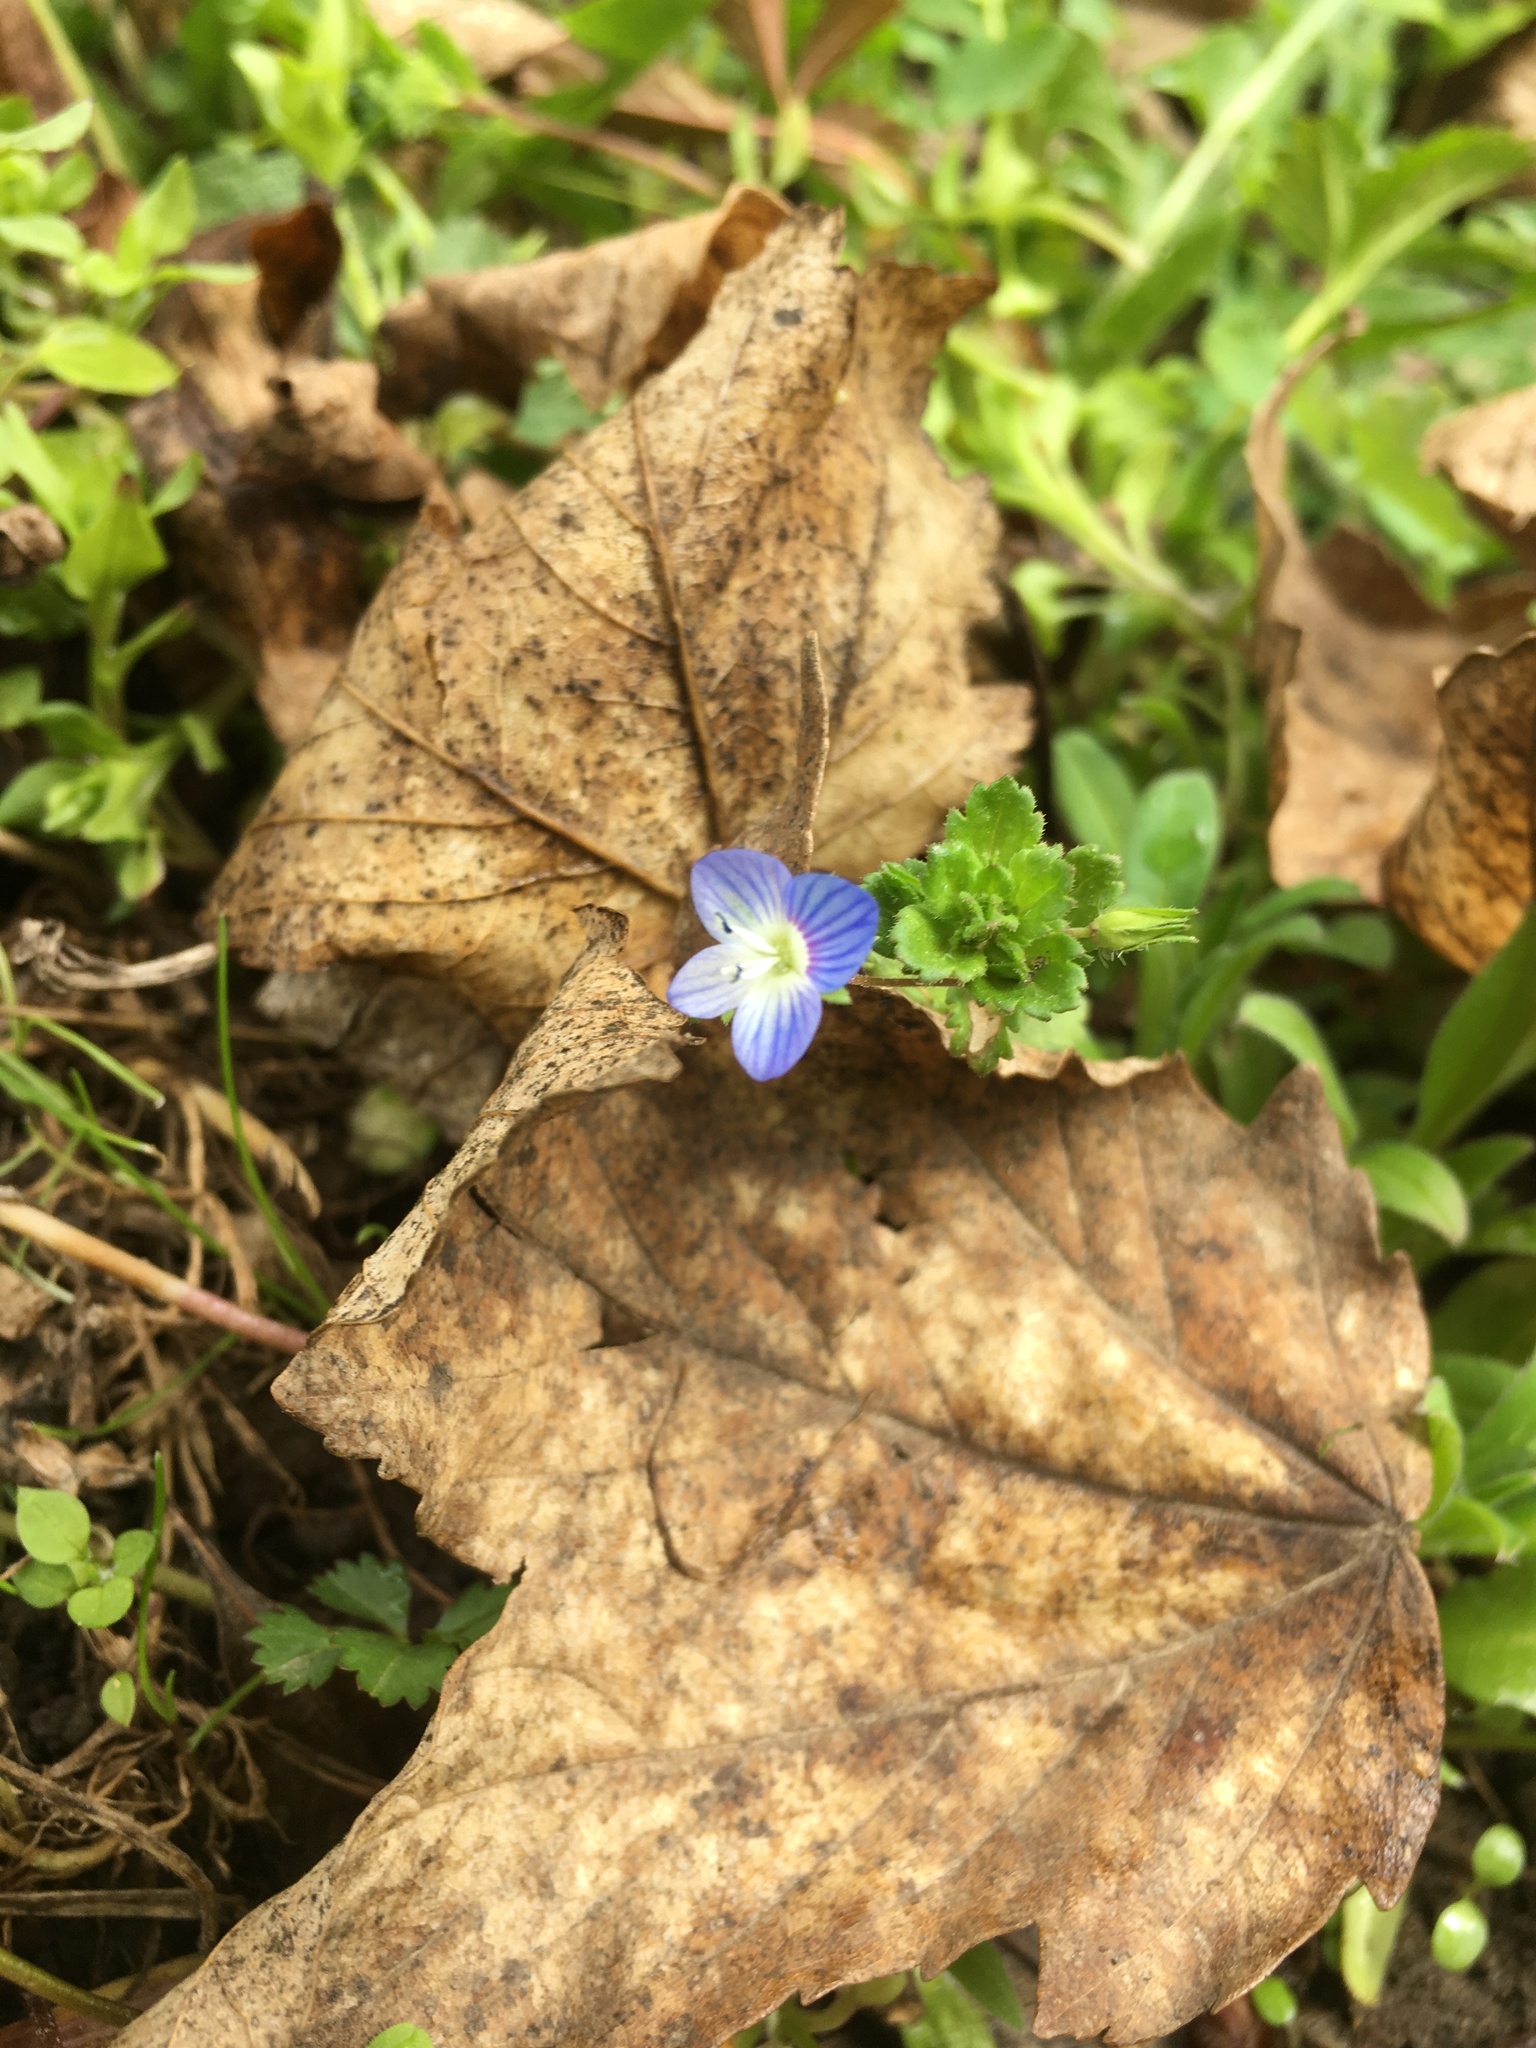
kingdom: Plantae
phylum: Tracheophyta
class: Magnoliopsida
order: Lamiales
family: Plantaginaceae
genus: Veronica
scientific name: Veronica persica
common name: Common field-speedwell
